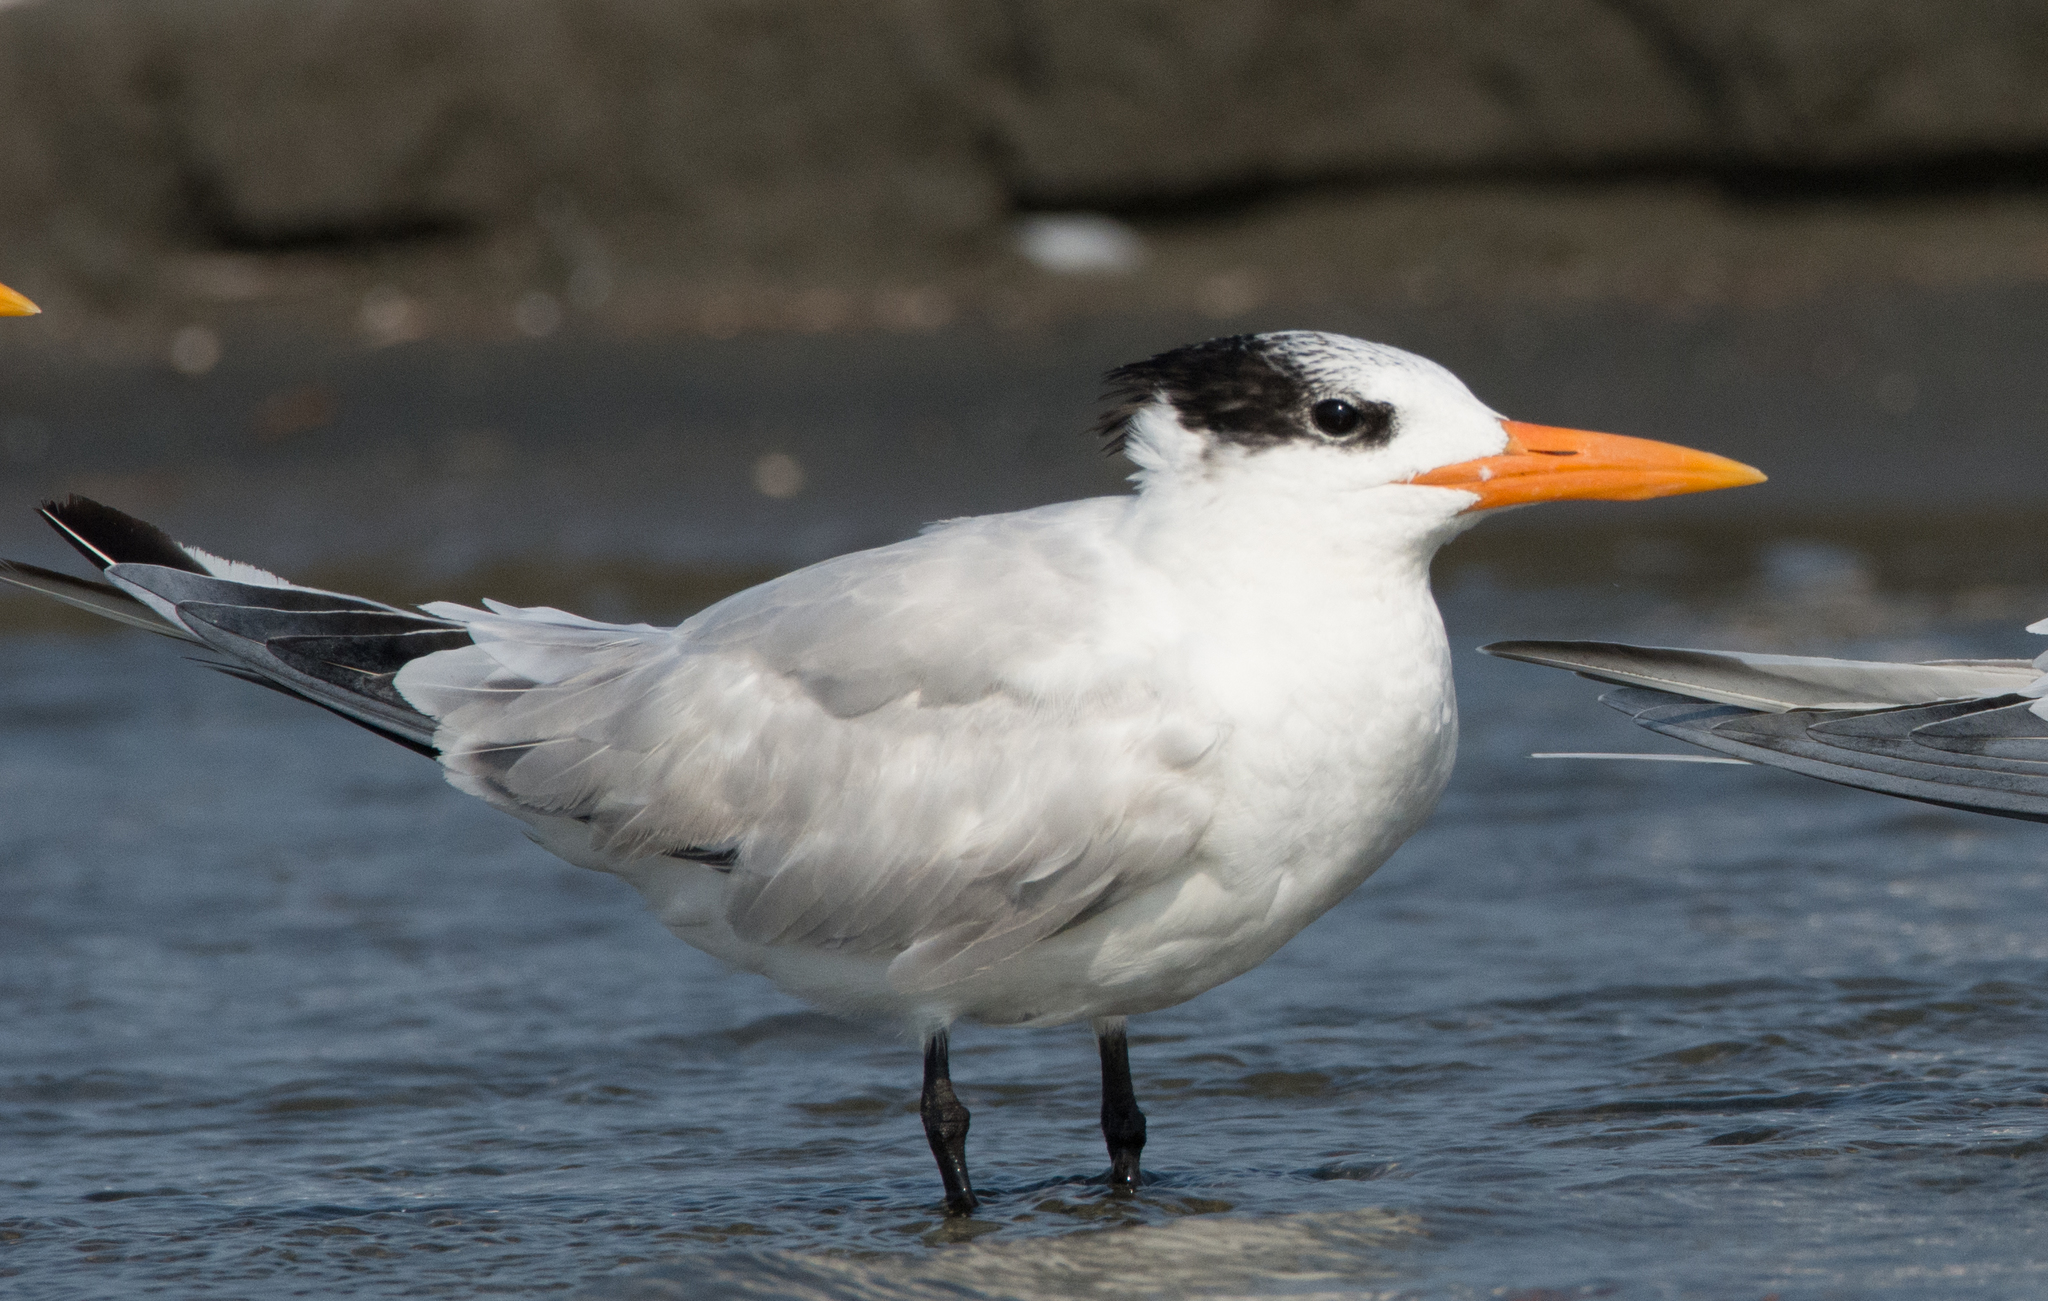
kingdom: Animalia
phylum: Chordata
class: Aves
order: Charadriiformes
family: Laridae
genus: Thalasseus
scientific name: Thalasseus maximus
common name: Royal tern
